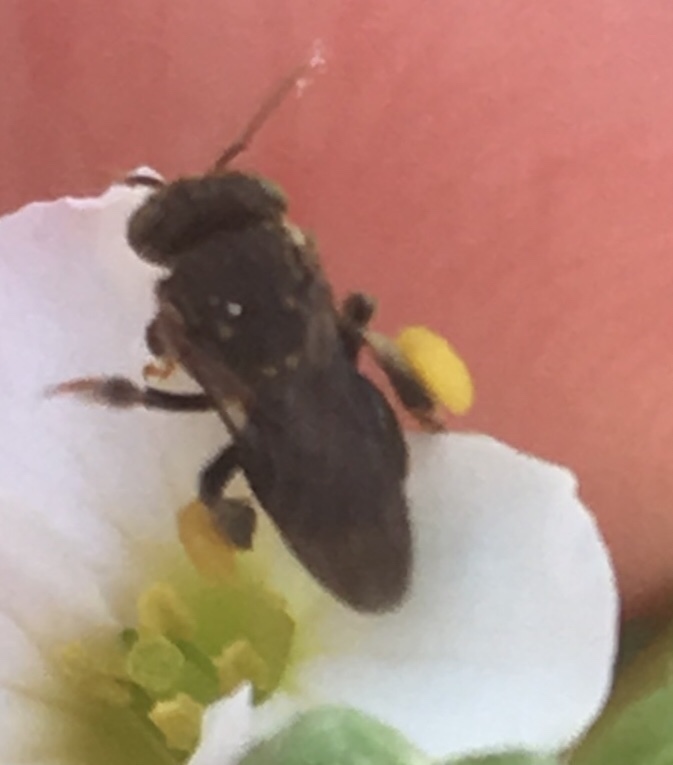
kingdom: Animalia
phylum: Arthropoda
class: Insecta
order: Hymenoptera
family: Apidae
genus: Nannotrigona
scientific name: Nannotrigona perilampoides
